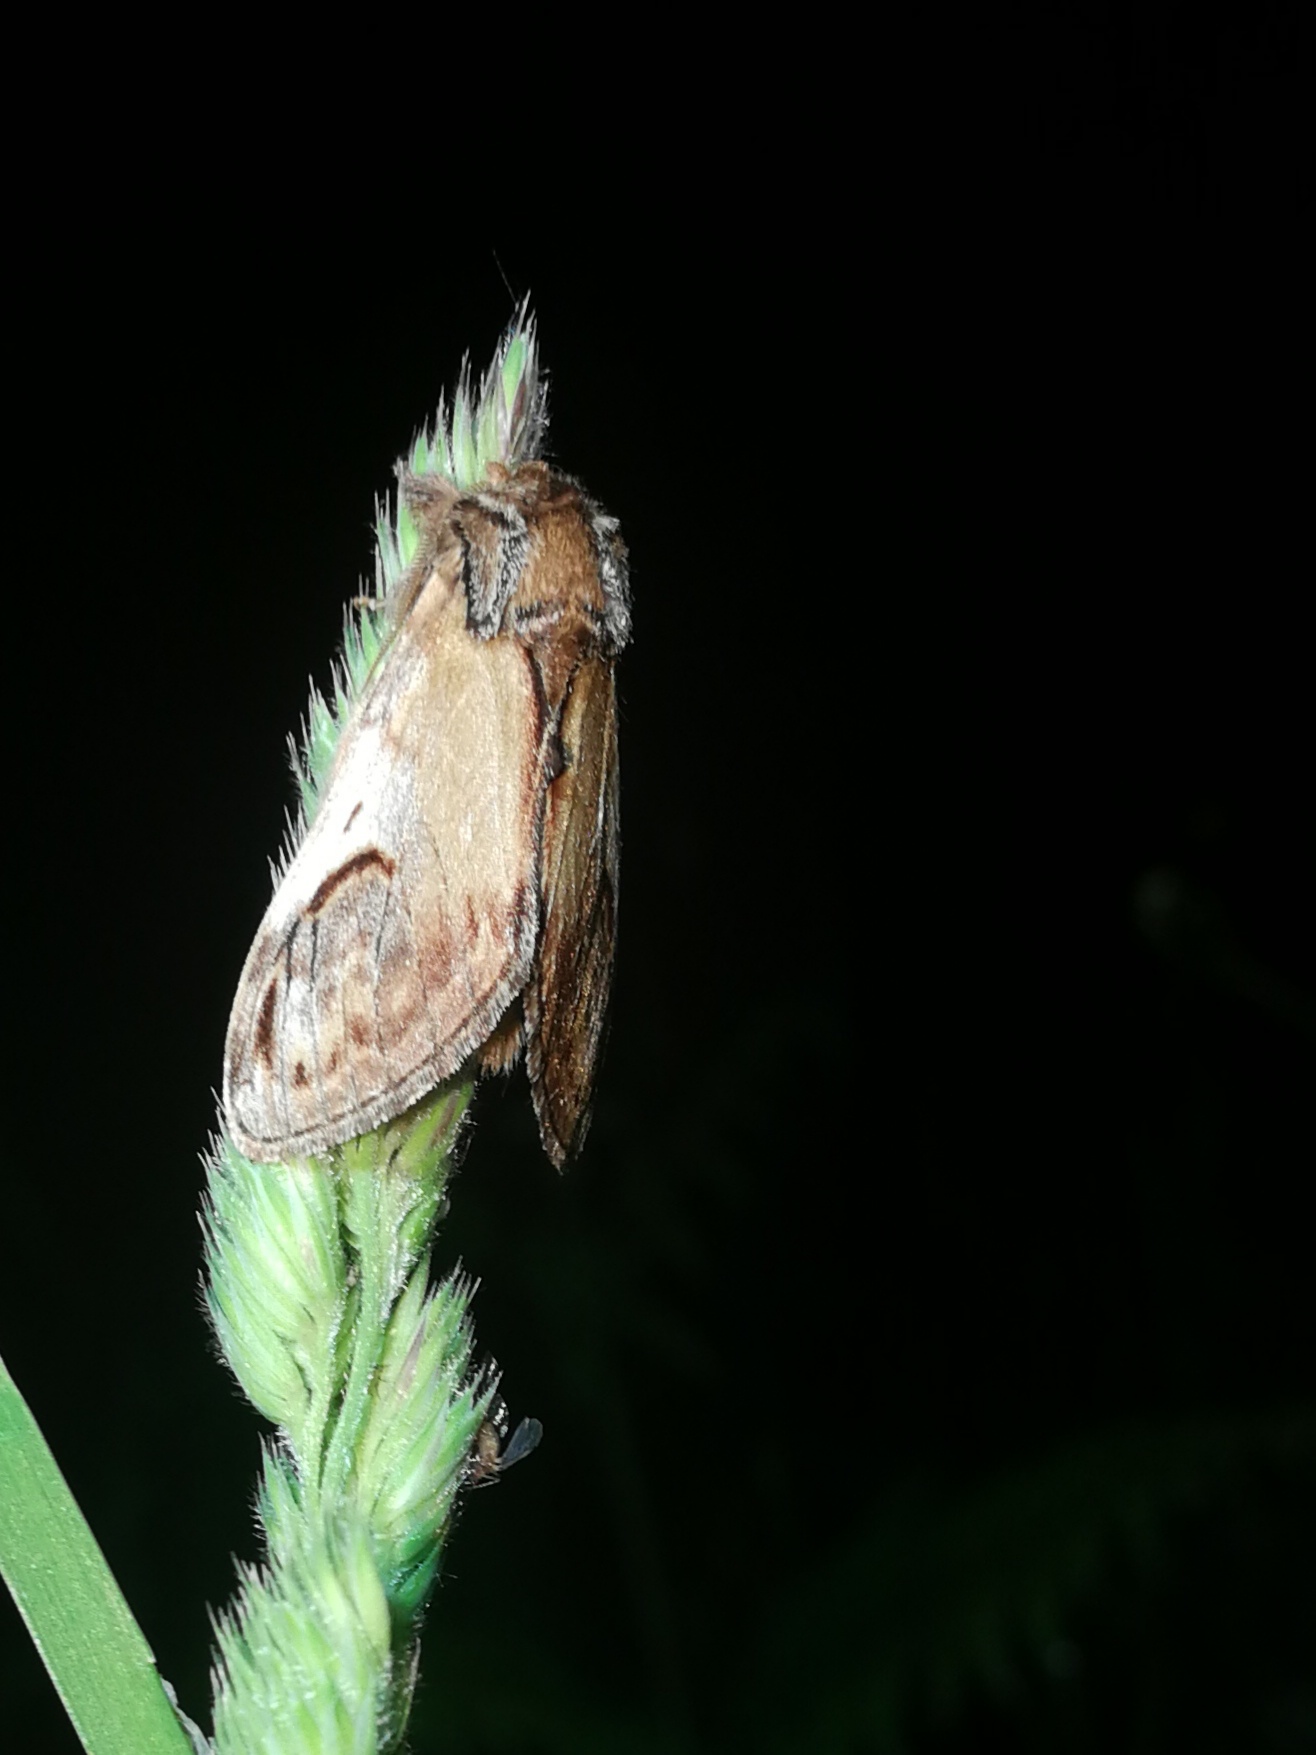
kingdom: Animalia
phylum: Arthropoda
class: Insecta
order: Lepidoptera
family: Notodontidae
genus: Notodonta
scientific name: Notodonta ziczac
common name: Pebble prominent
